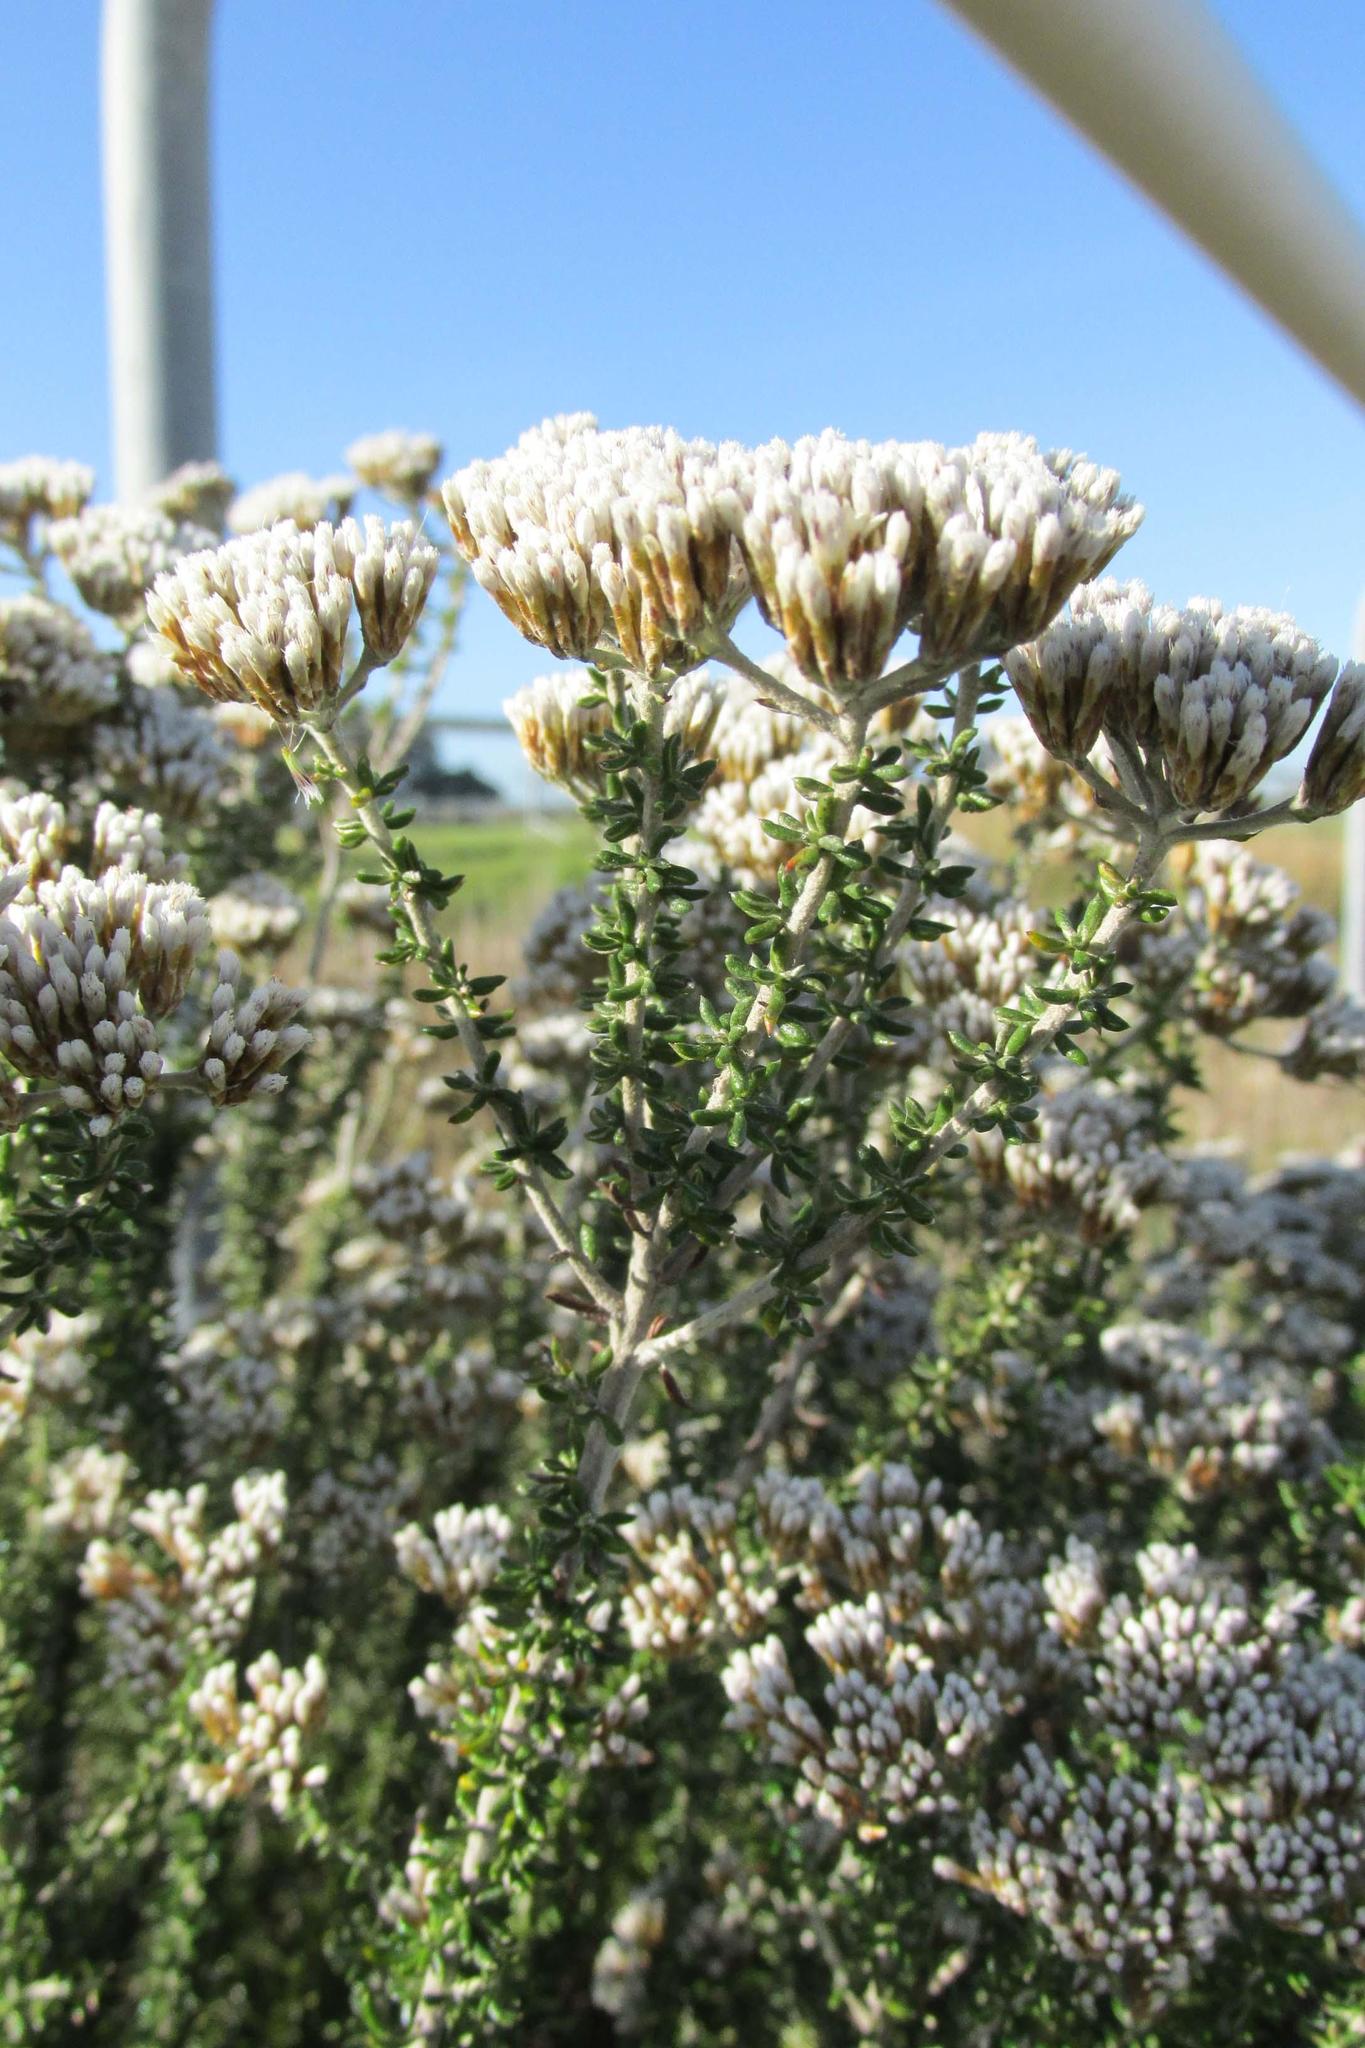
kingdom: Plantae
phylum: Tracheophyta
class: Magnoliopsida
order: Asterales
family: Asteraceae
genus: Metalasia
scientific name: Metalasia densa
